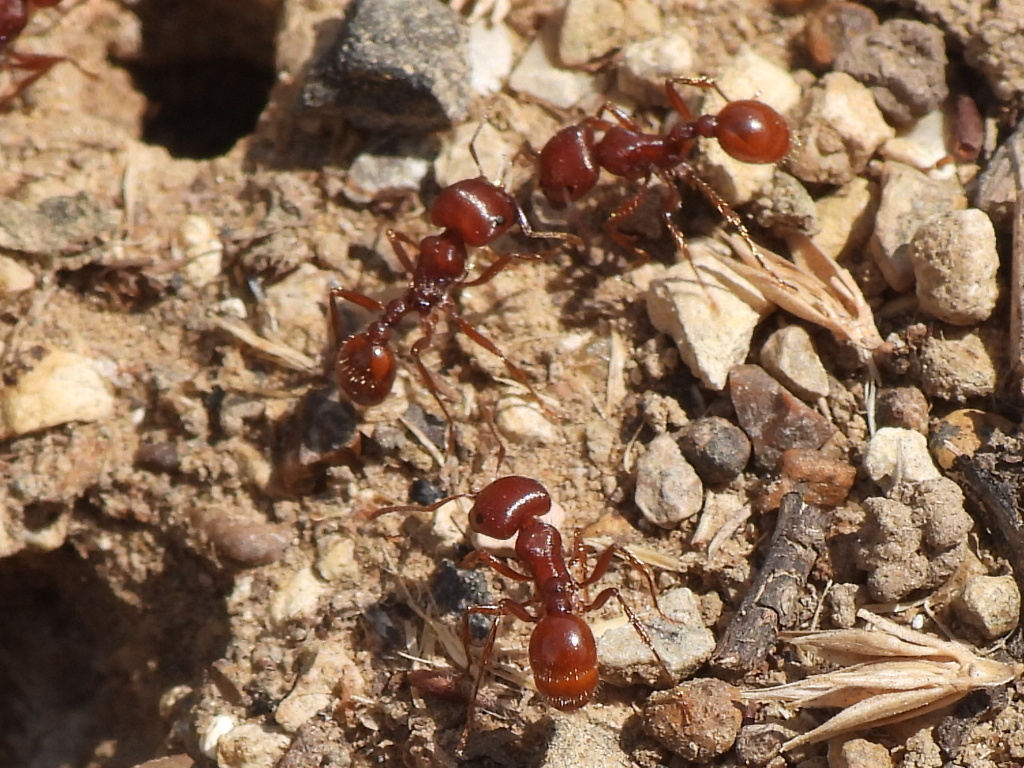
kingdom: Animalia
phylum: Arthropoda
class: Insecta
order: Hymenoptera
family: Formicidae
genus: Pogonomyrmex
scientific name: Pogonomyrmex barbatus
